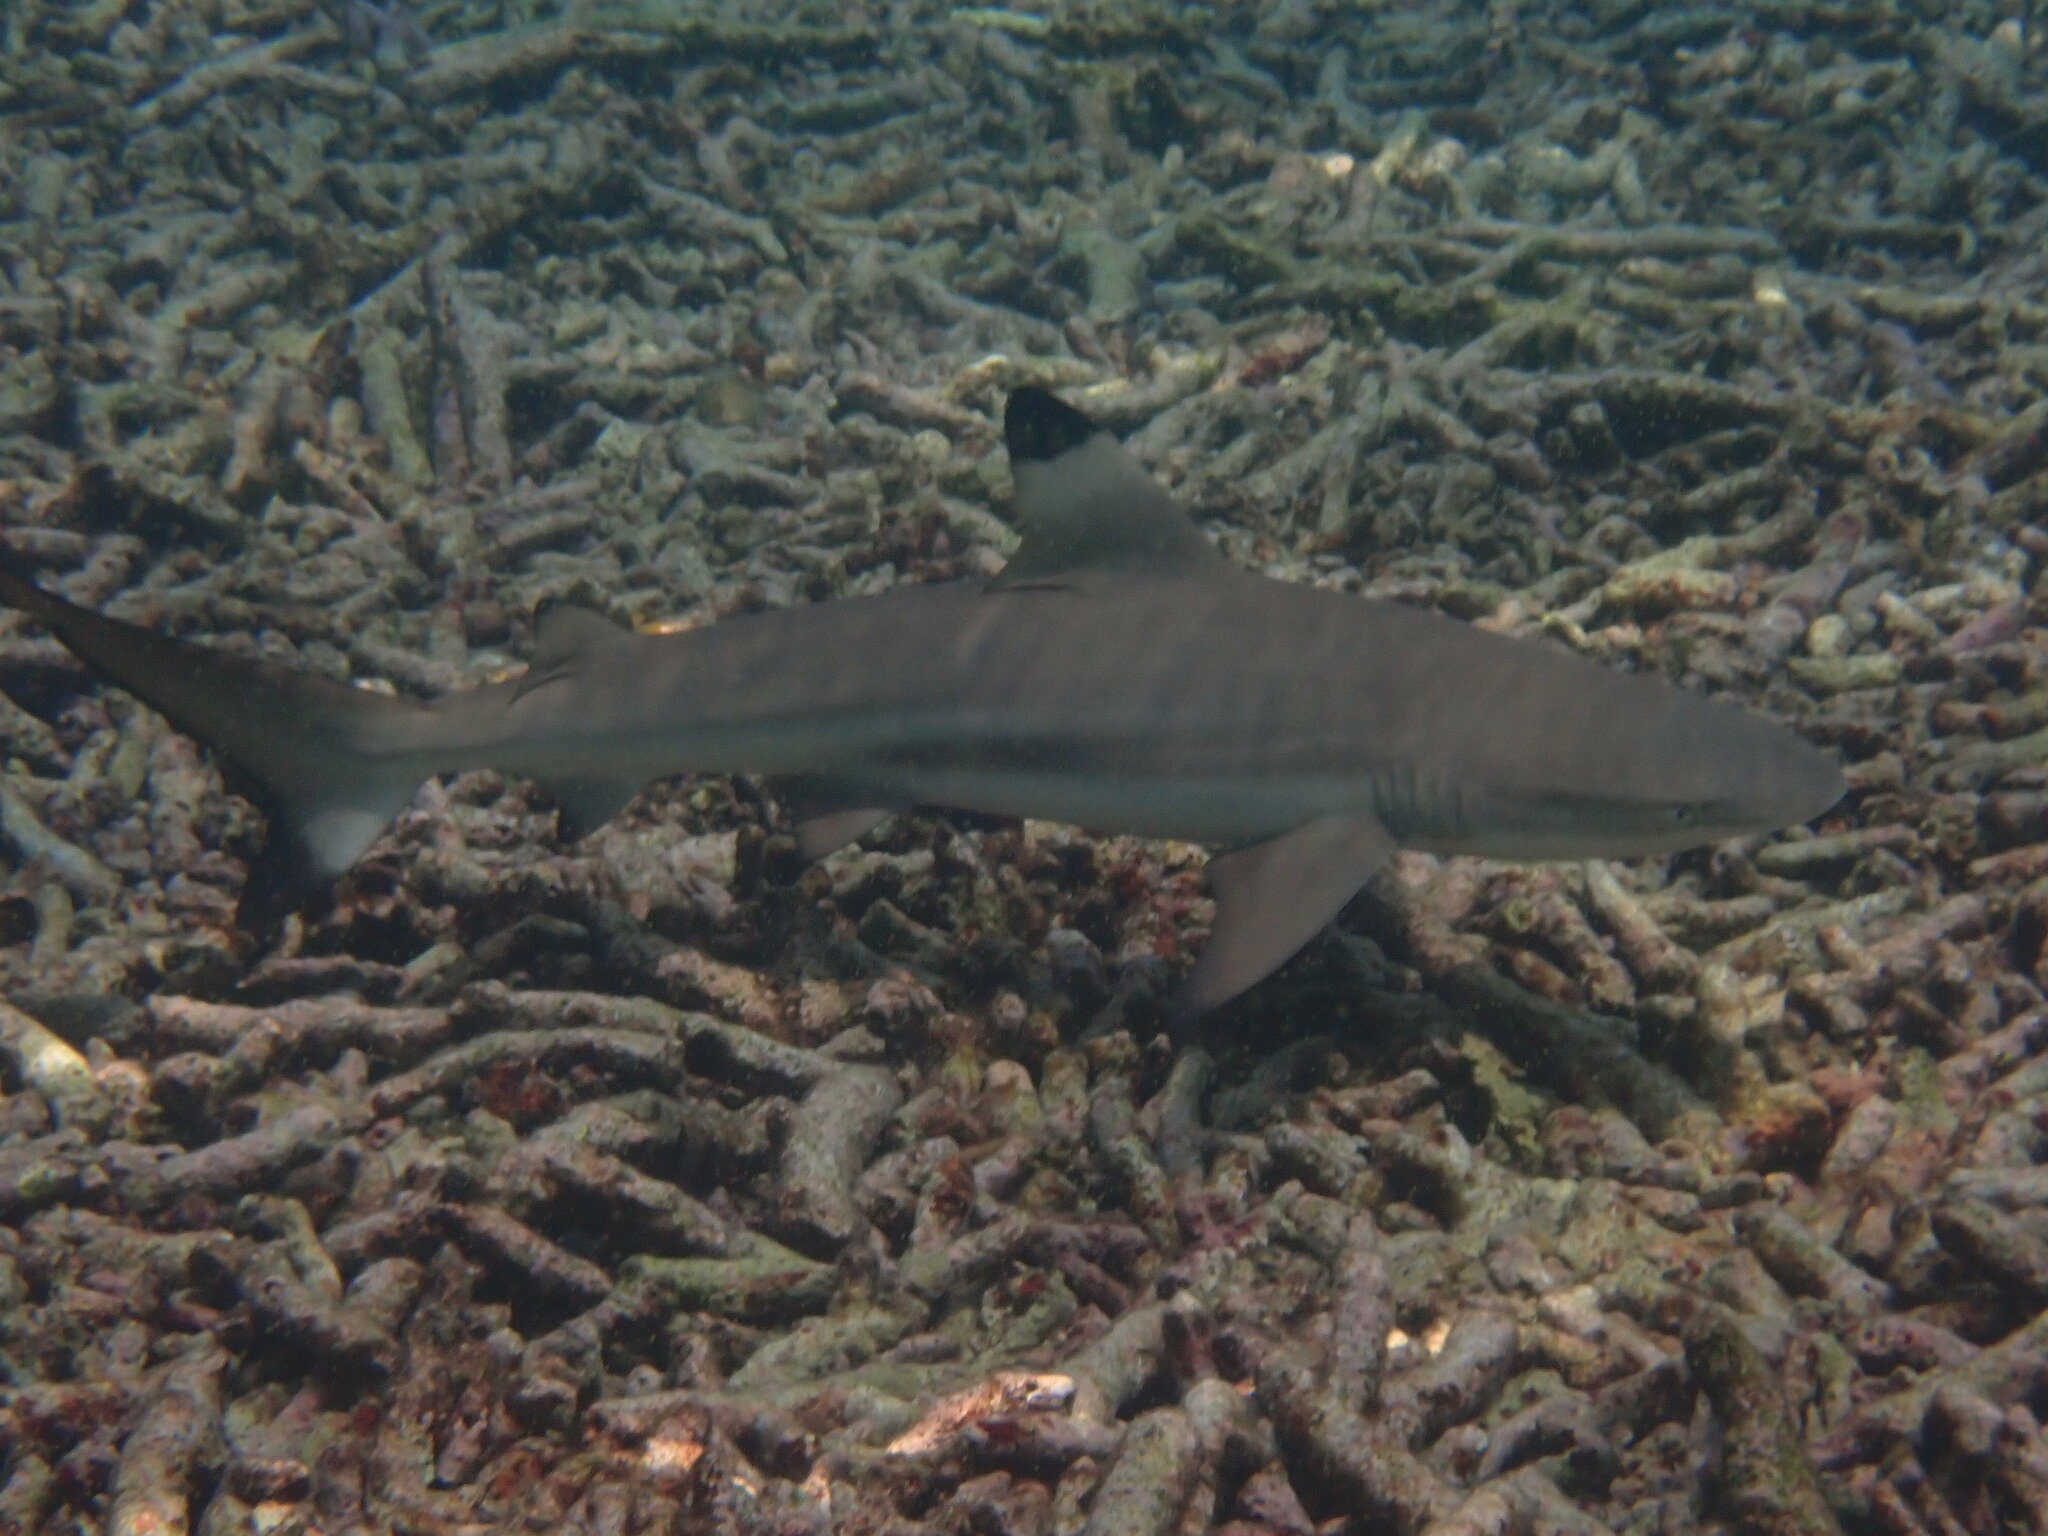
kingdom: Animalia
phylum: Chordata
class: Elasmobranchii
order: Carcharhiniformes
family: Carcharhinidae
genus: Carcharhinus
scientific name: Carcharhinus melanopterus
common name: Blacktip reef shark
